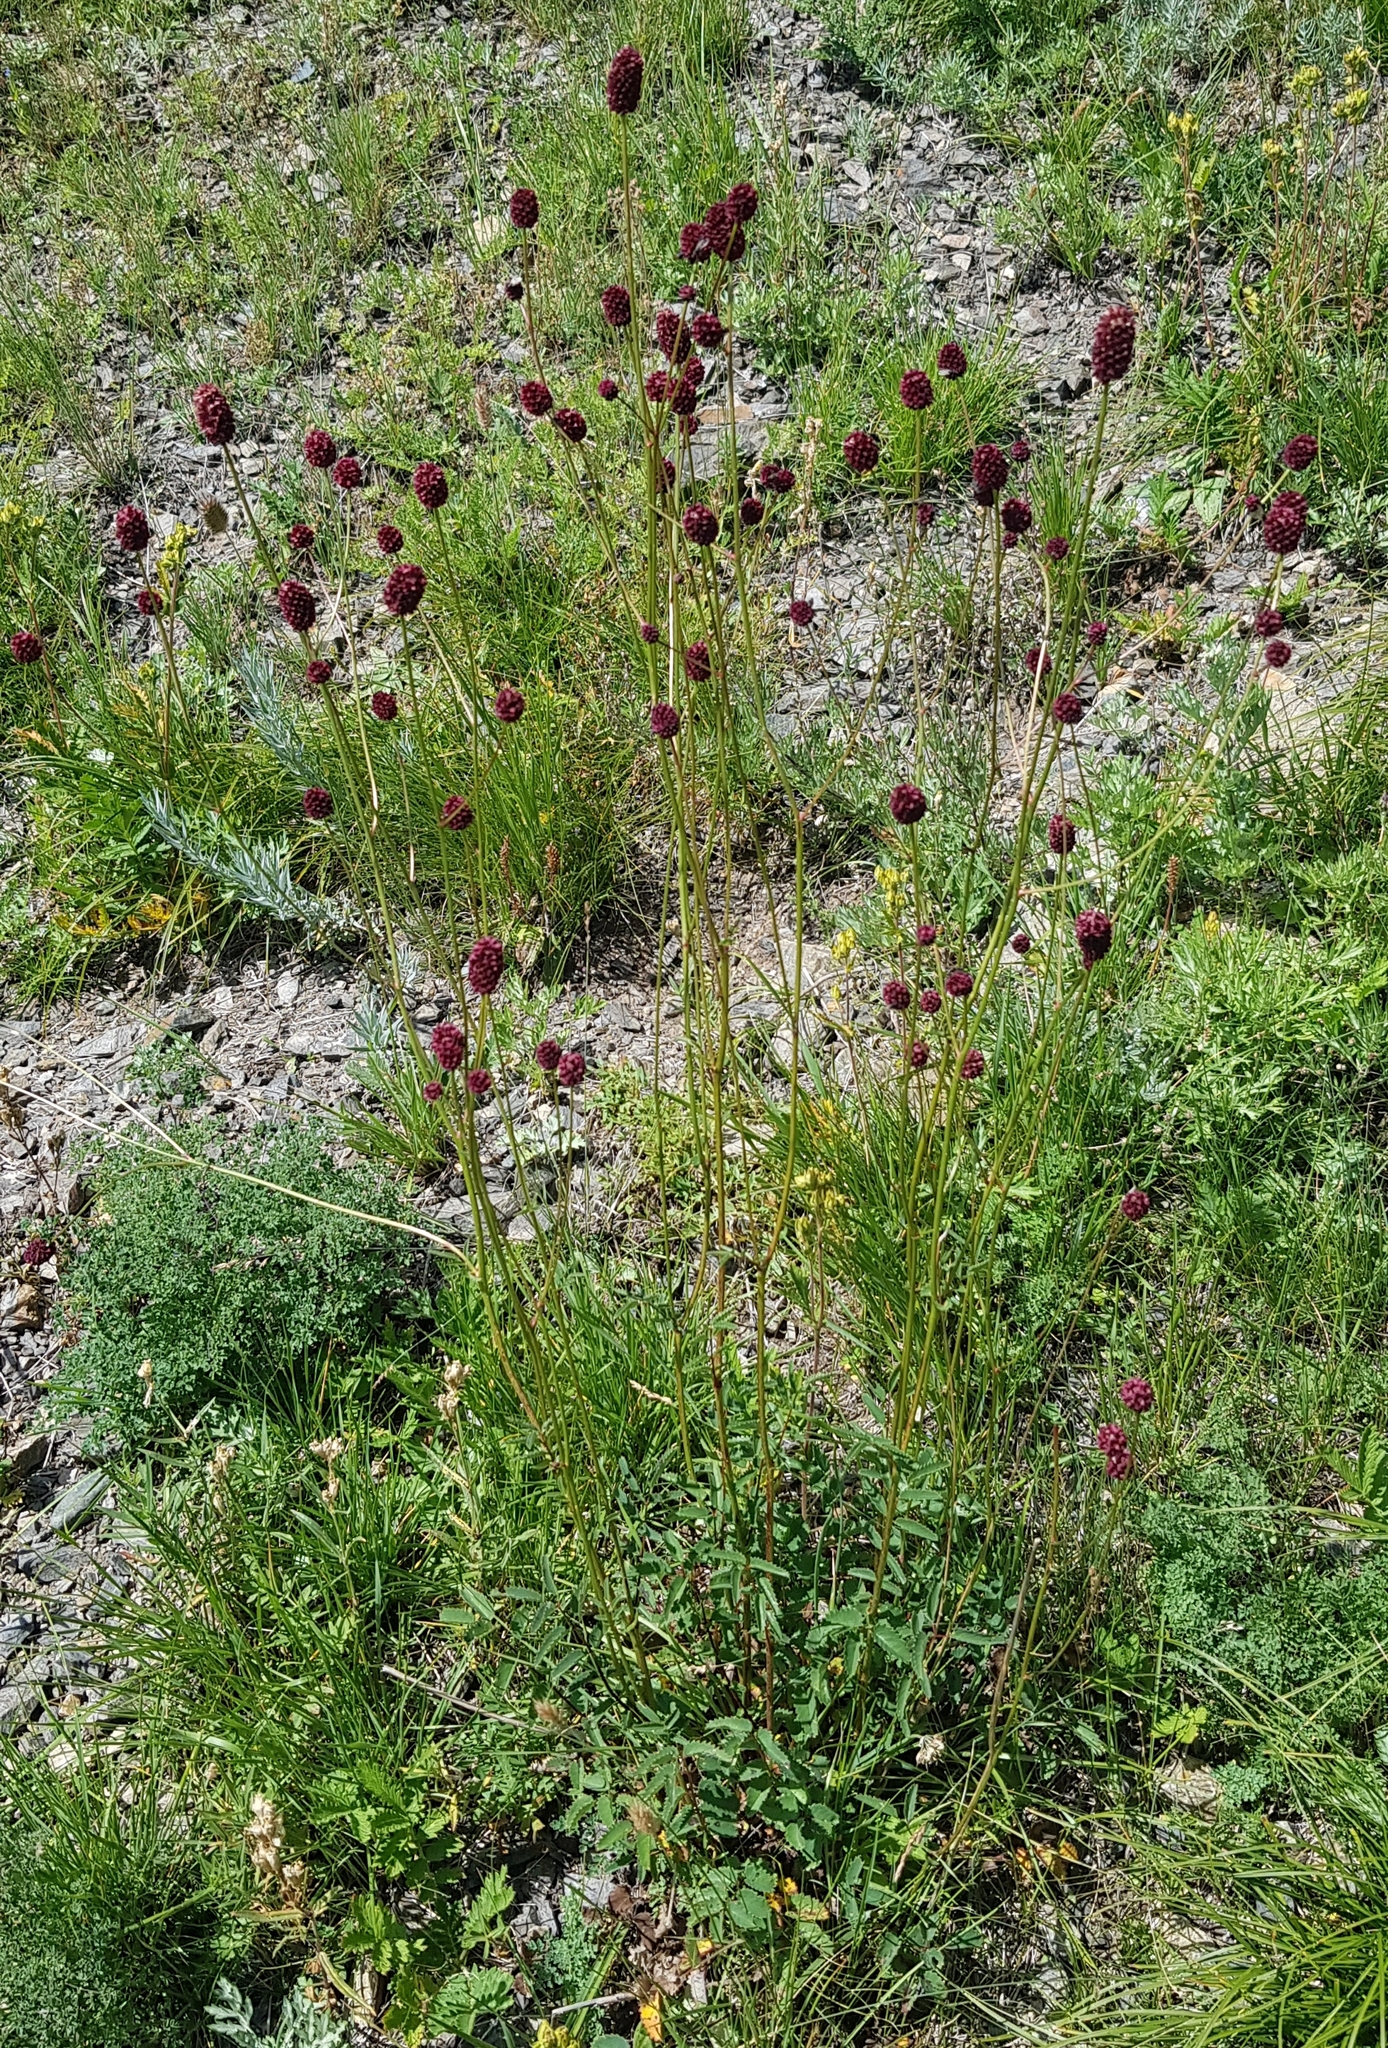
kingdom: Plantae
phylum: Tracheophyta
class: Magnoliopsida
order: Rosales
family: Rosaceae
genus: Sanguisorba
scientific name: Sanguisorba officinalis
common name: Great burnet
